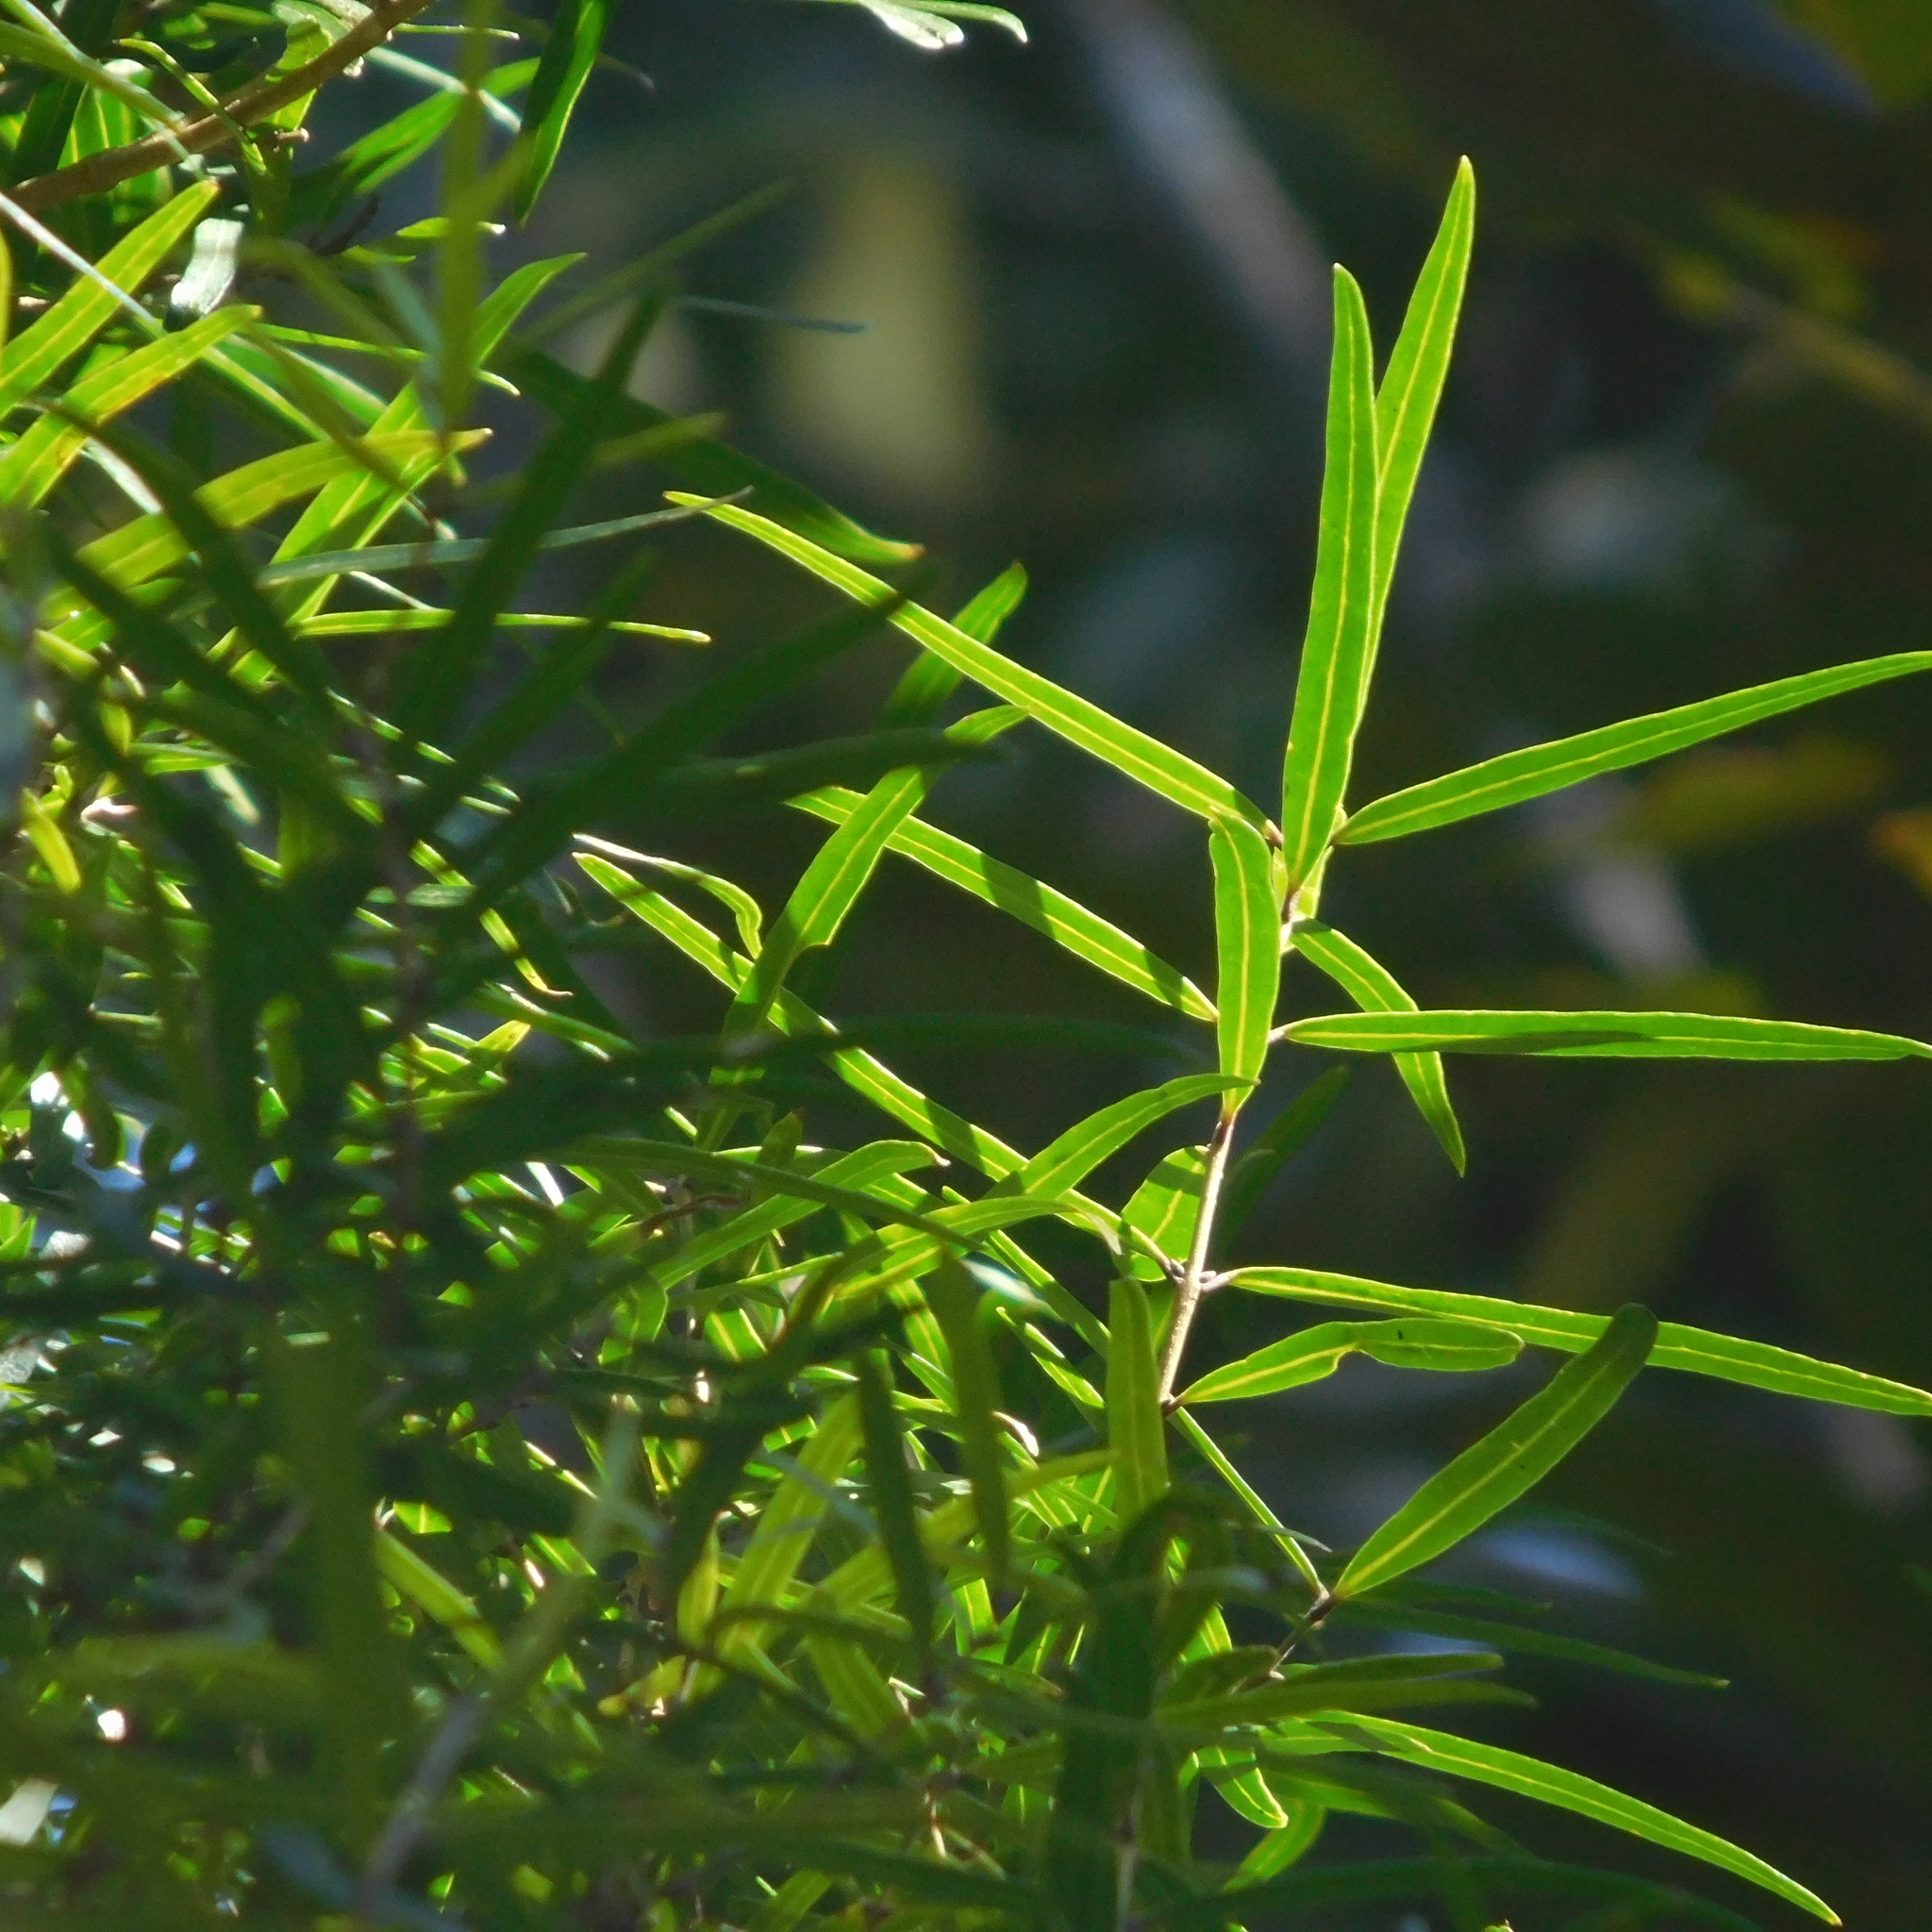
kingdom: Plantae
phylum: Tracheophyta
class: Magnoliopsida
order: Lamiales
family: Oleaceae
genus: Nestegis
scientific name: Nestegis montana
